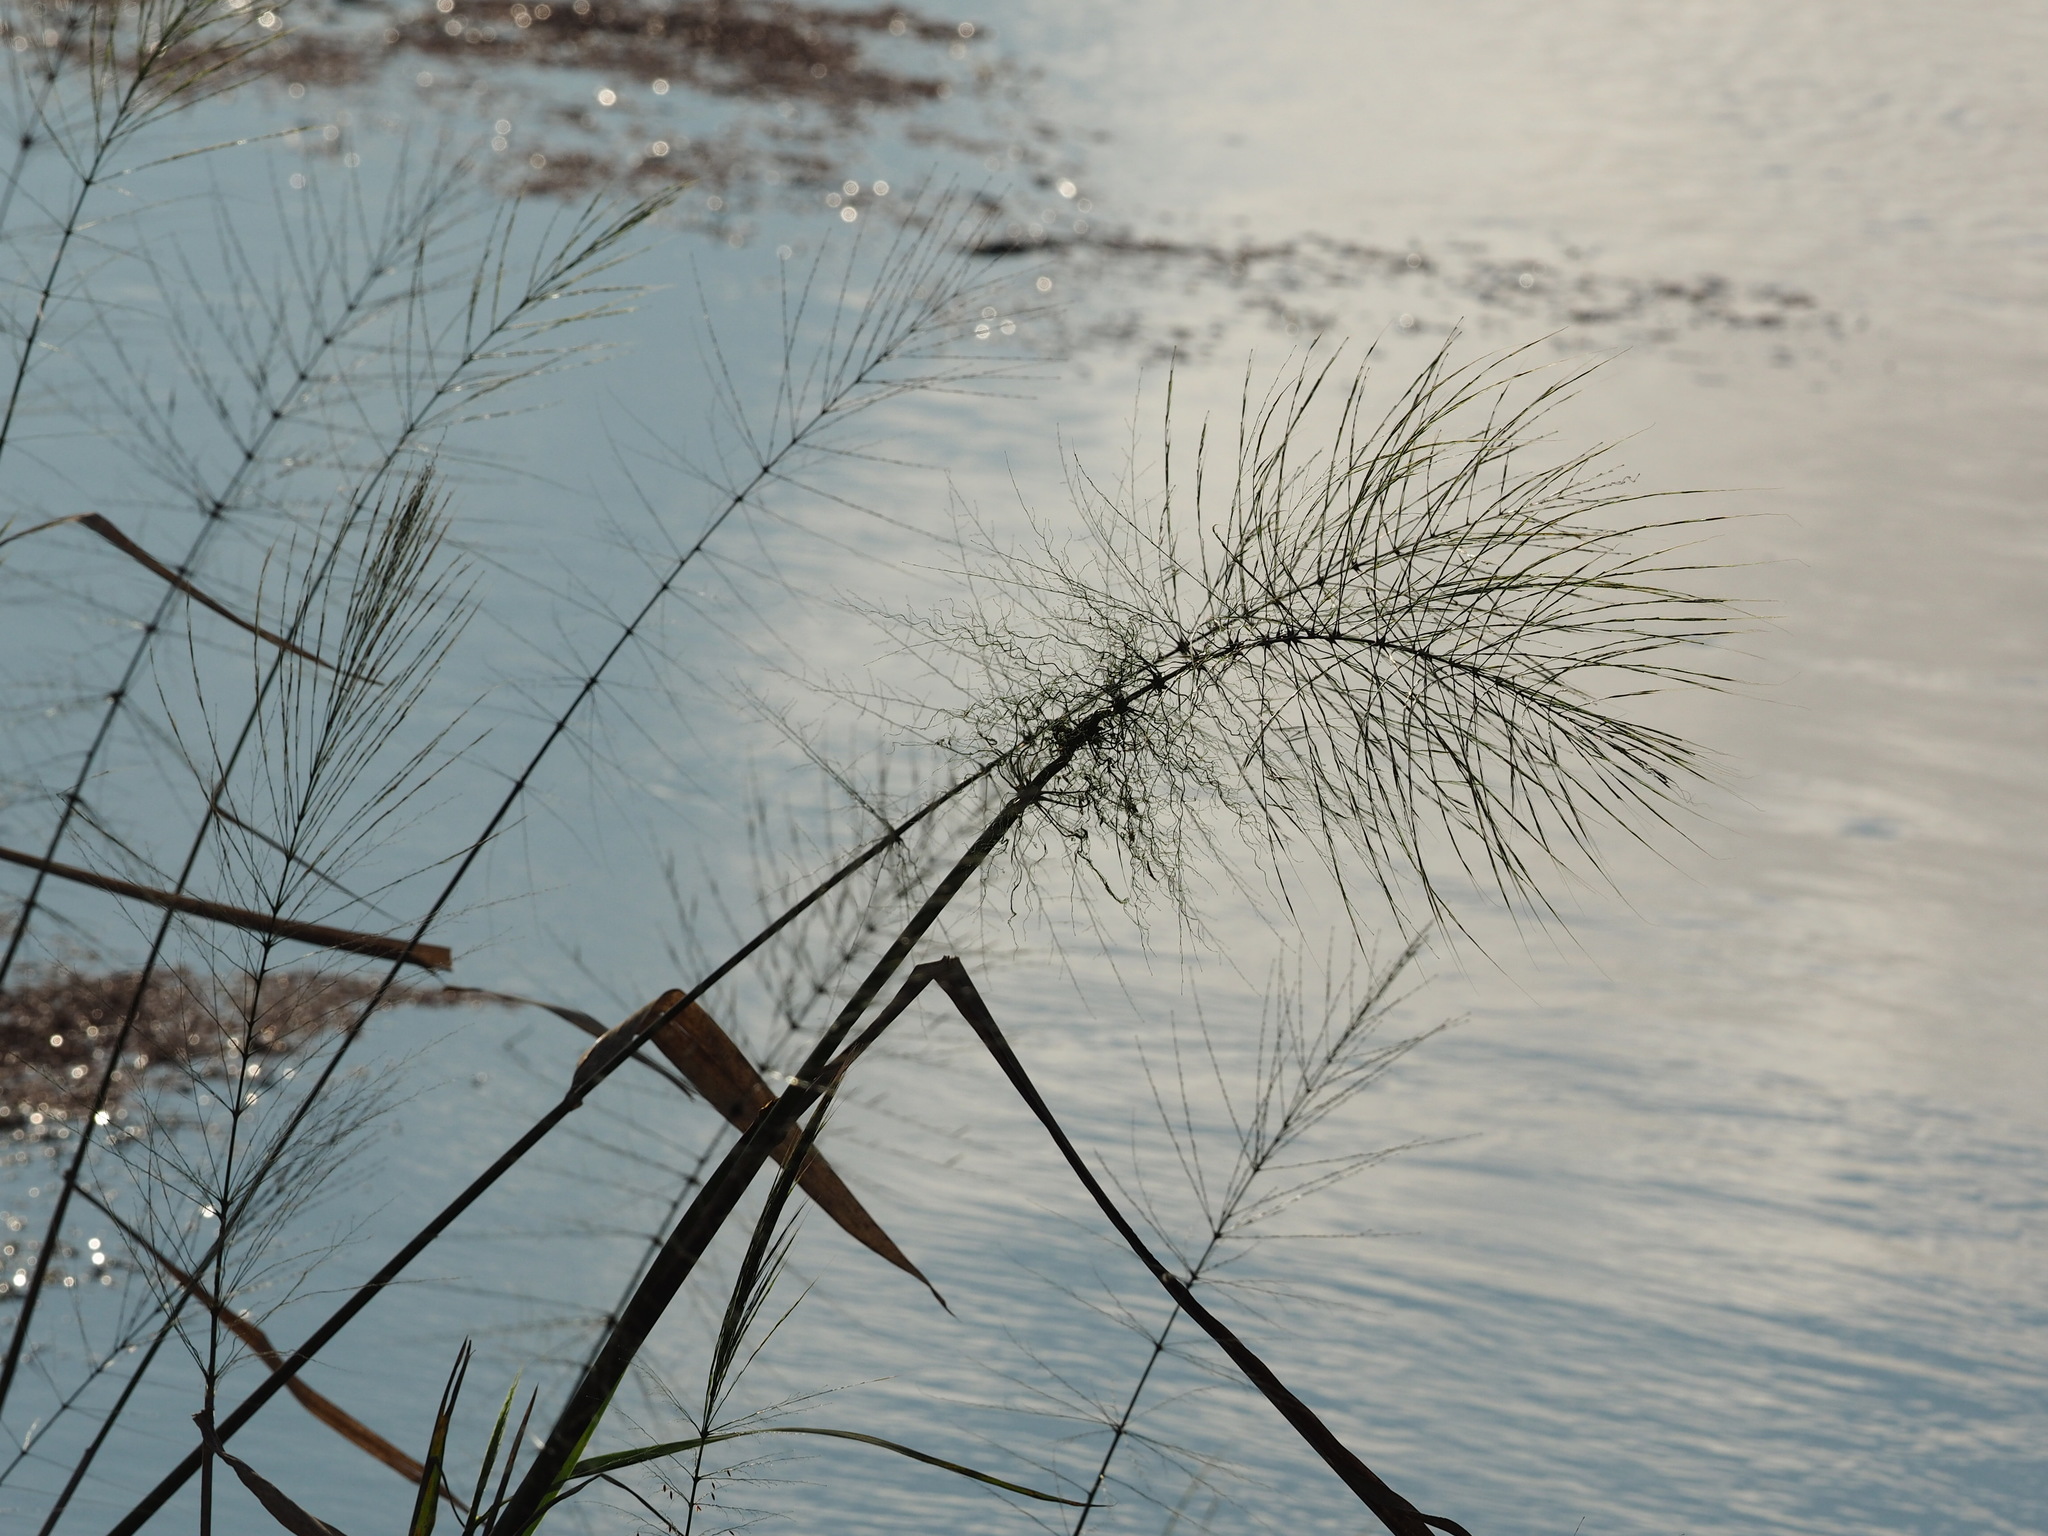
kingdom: Plantae
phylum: Tracheophyta
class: Liliopsida
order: Poales
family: Poaceae
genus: Zizania
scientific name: Zizania aquatica
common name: Annual wildrice
